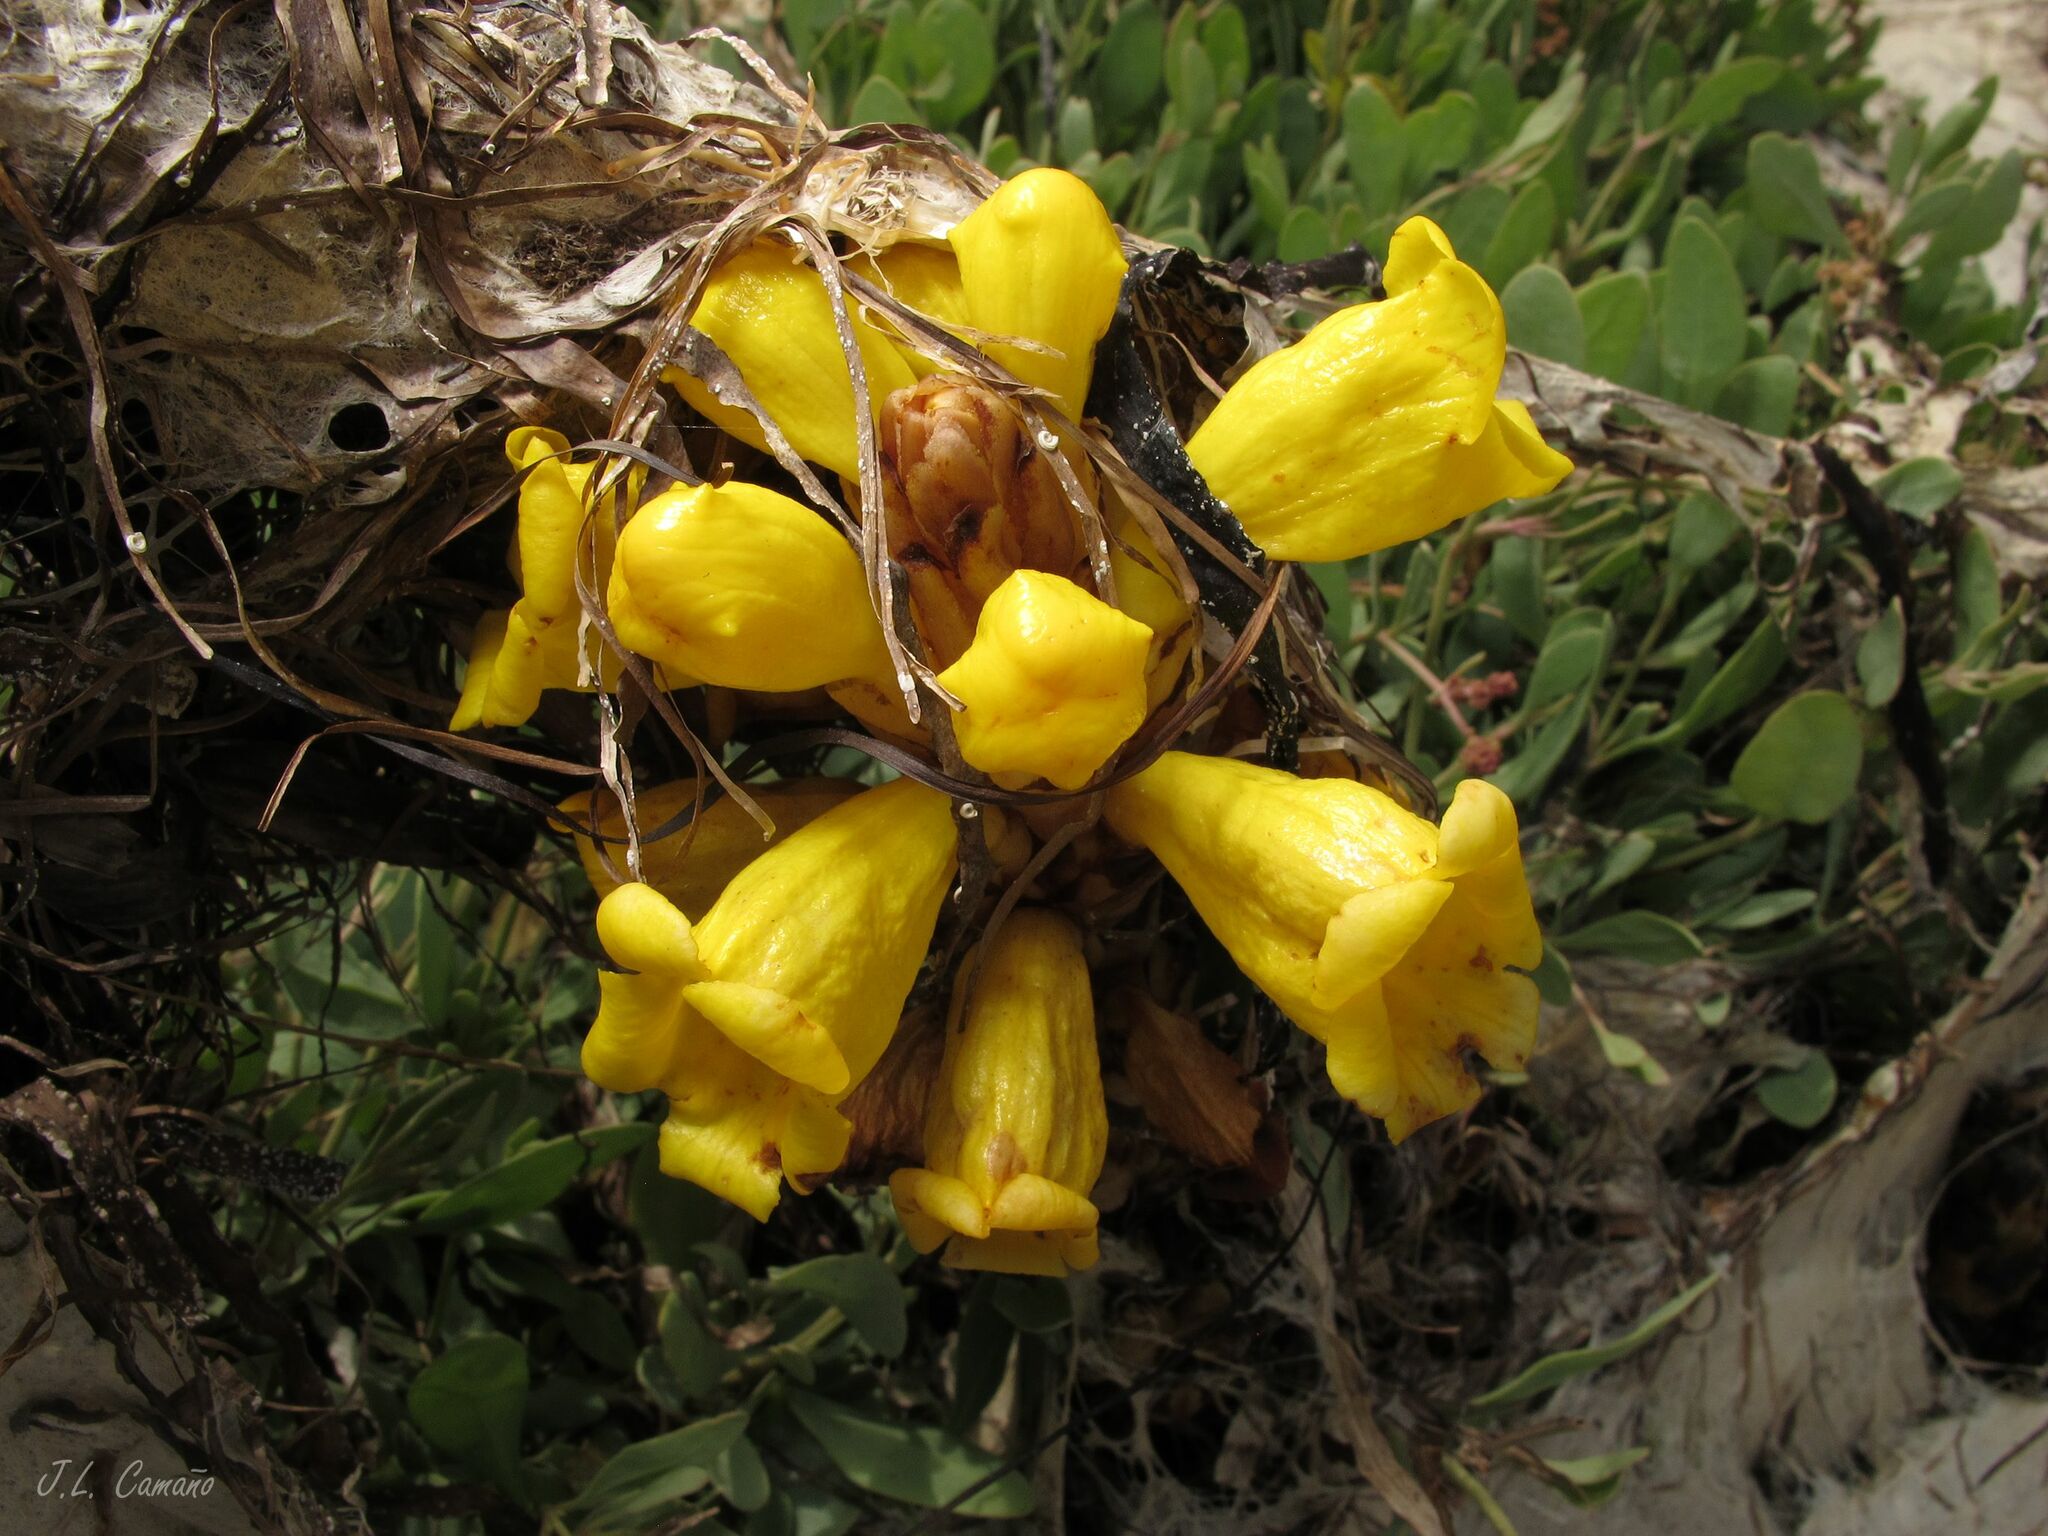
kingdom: Plantae
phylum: Tracheophyta
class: Magnoliopsida
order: Lamiales
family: Orobanchaceae
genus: Cistanche
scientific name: Cistanche phelypaea
